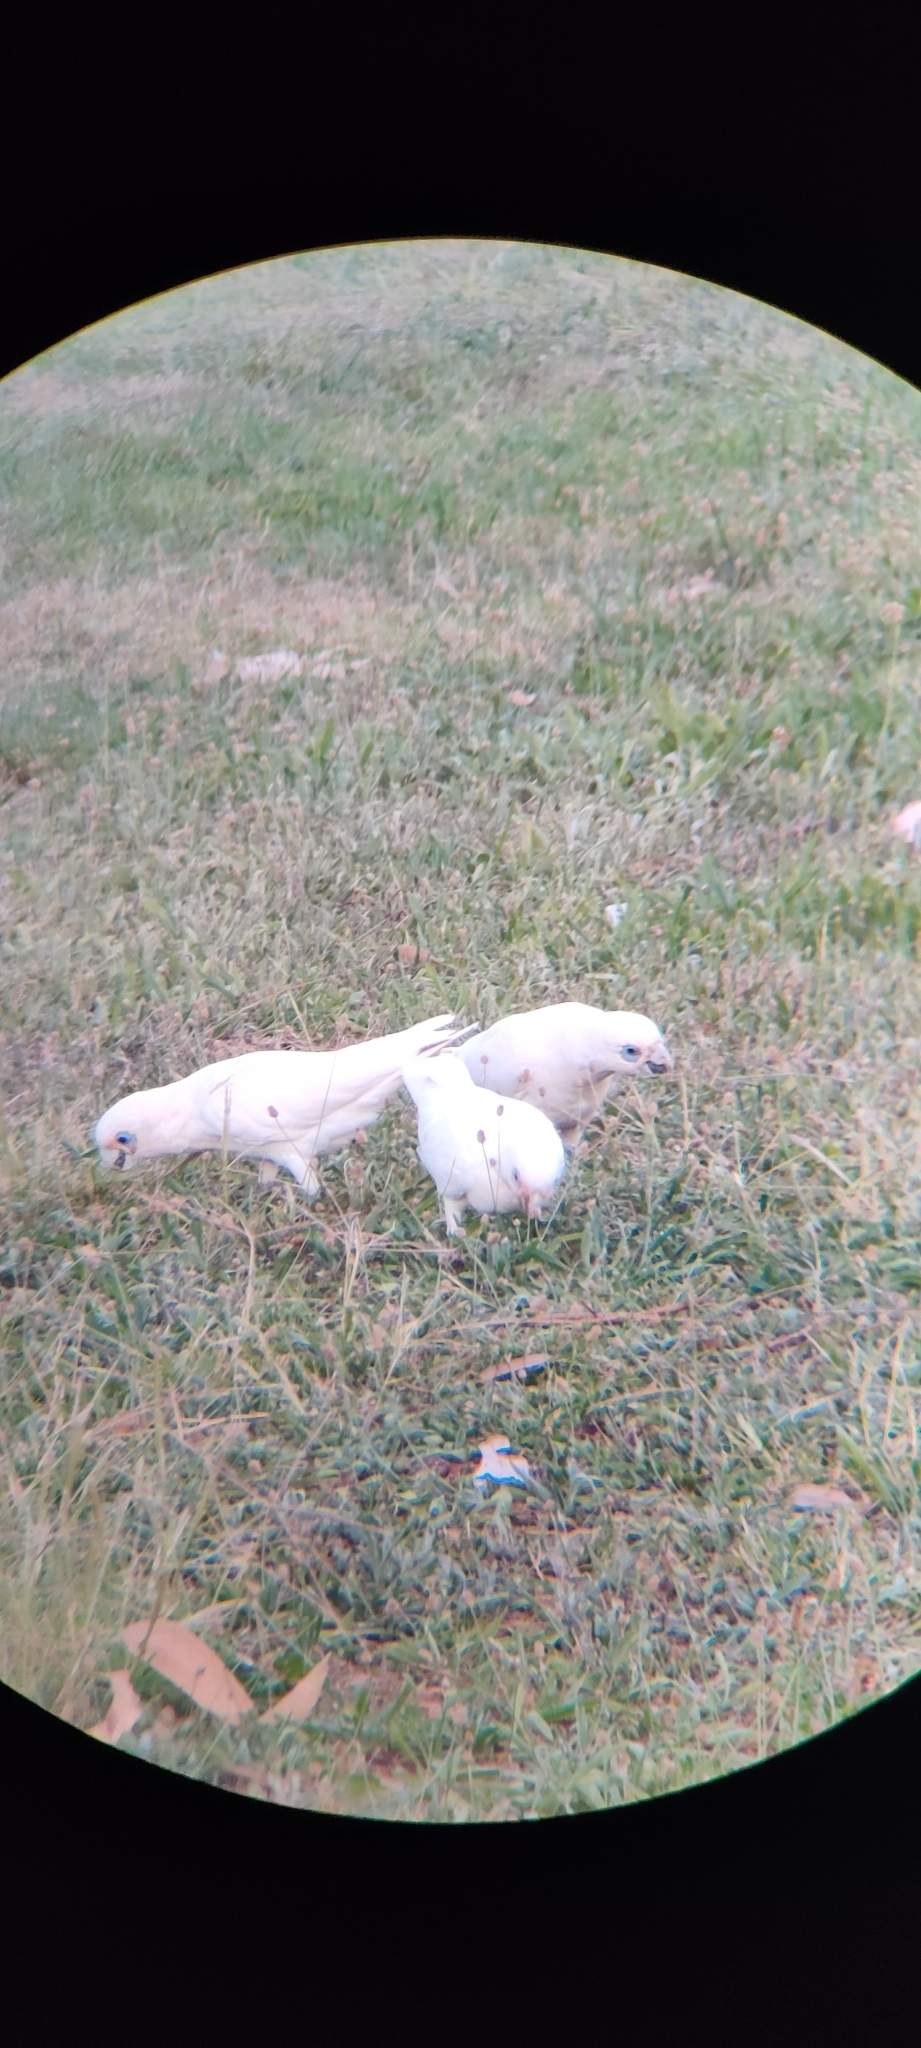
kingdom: Animalia
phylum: Chordata
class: Aves
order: Psittaciformes
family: Psittacidae
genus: Cacatua
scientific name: Cacatua sanguinea
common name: Little corella
